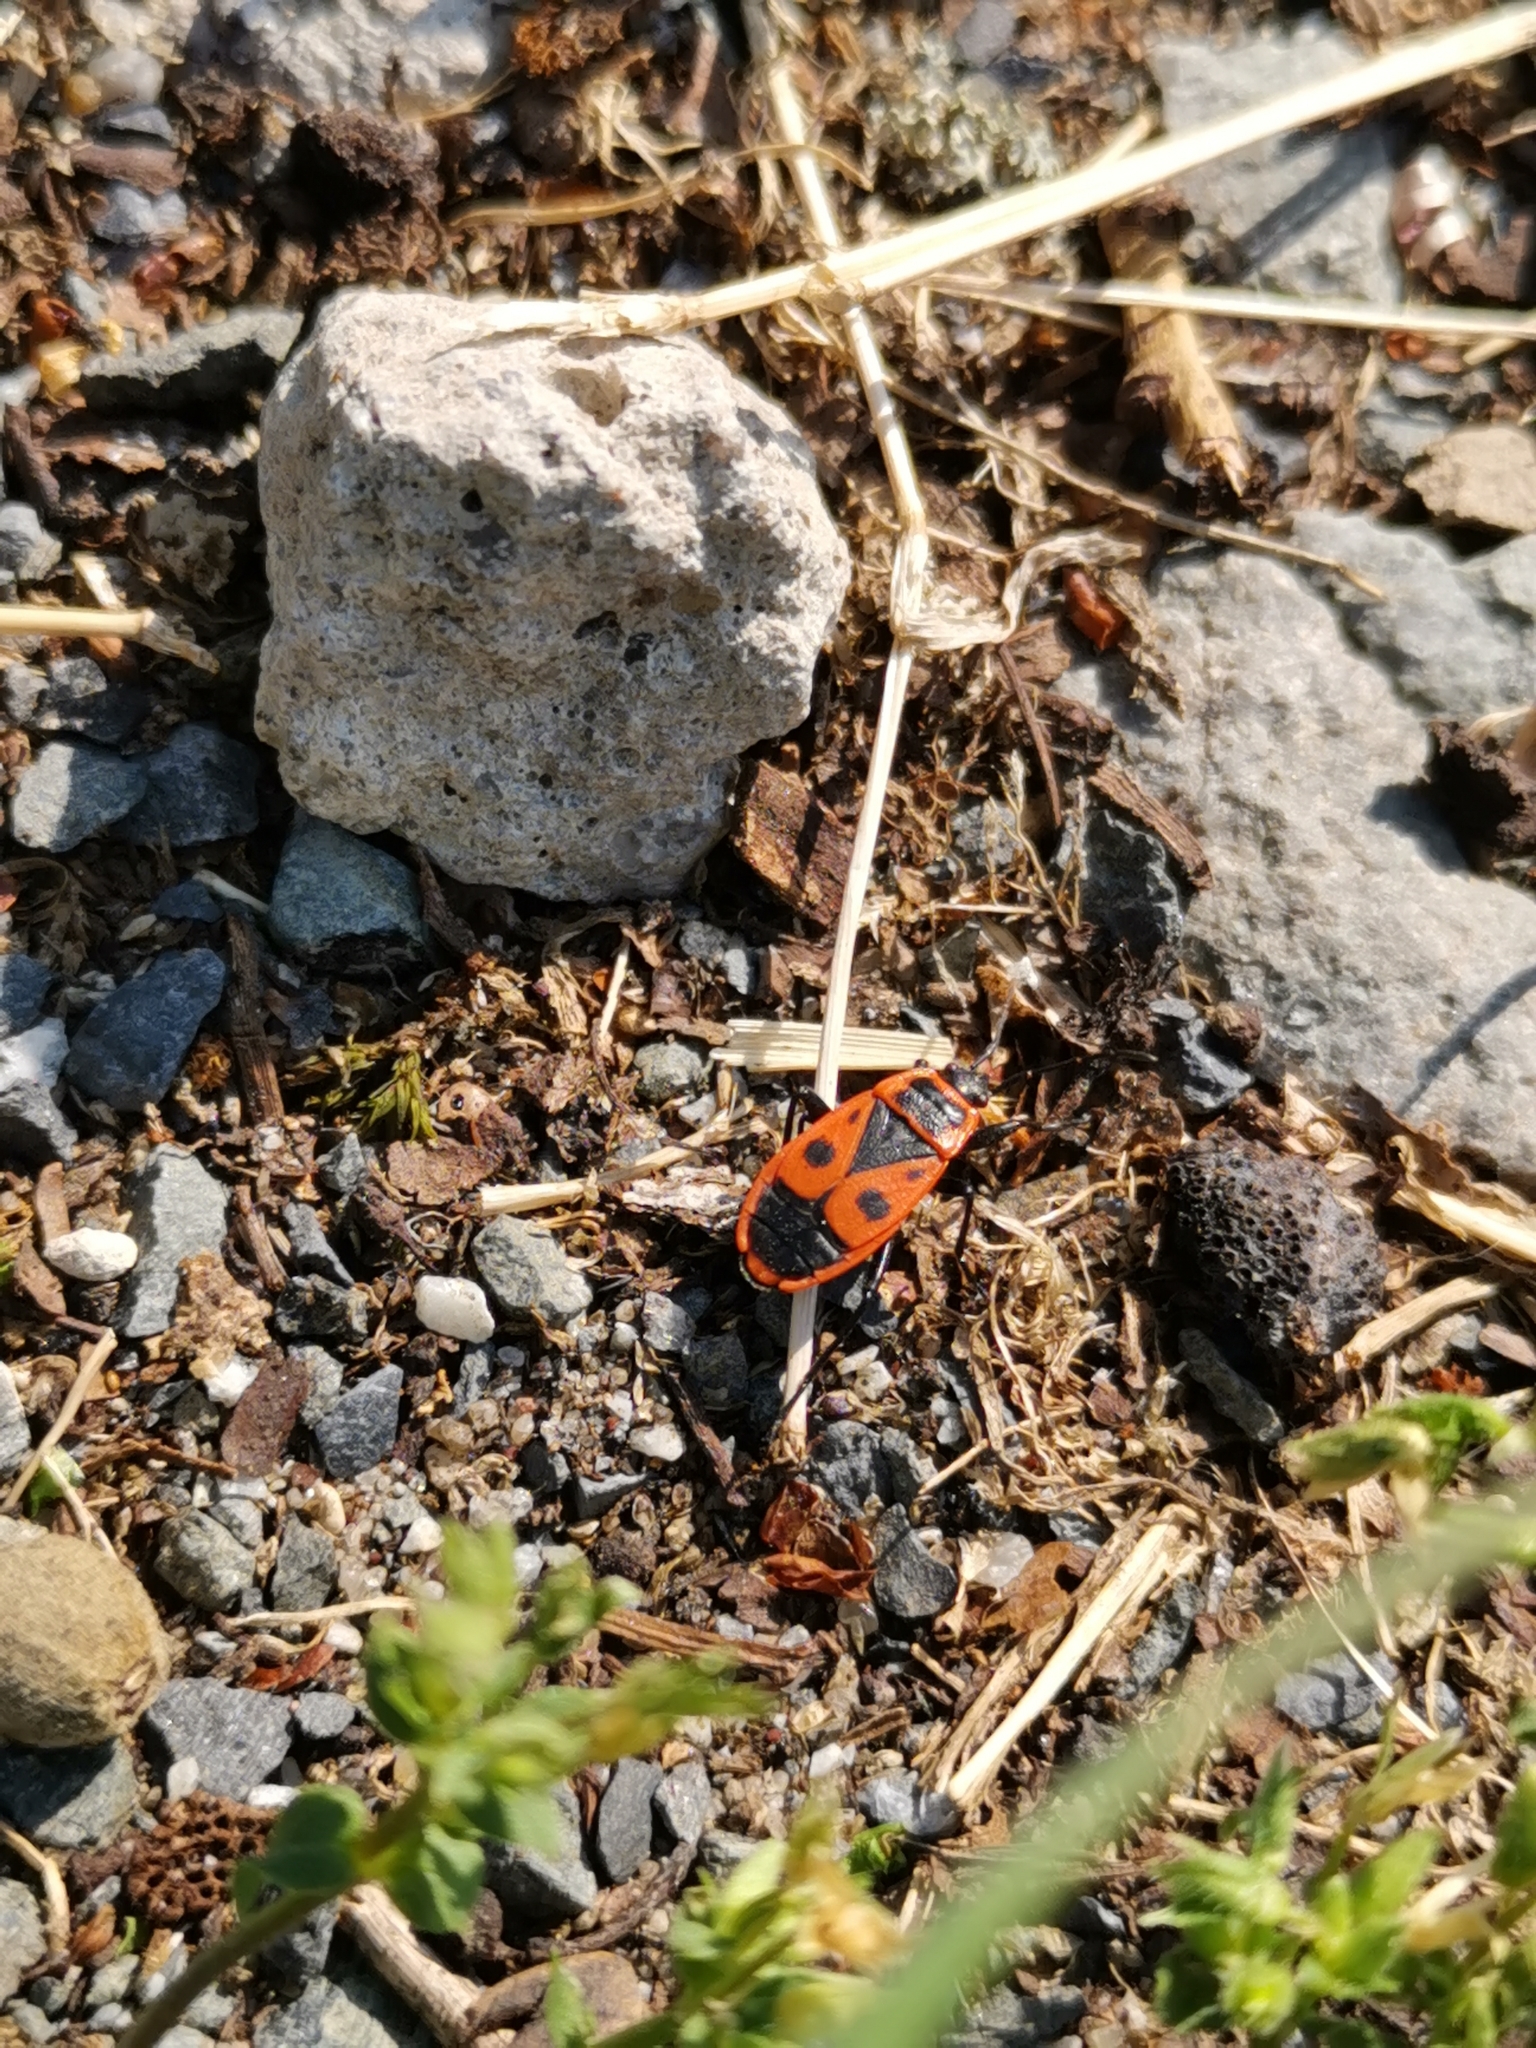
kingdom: Animalia
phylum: Arthropoda
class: Insecta
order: Hemiptera
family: Pyrrhocoridae
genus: Pyrrhocoris
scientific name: Pyrrhocoris apterus
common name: Firebug
